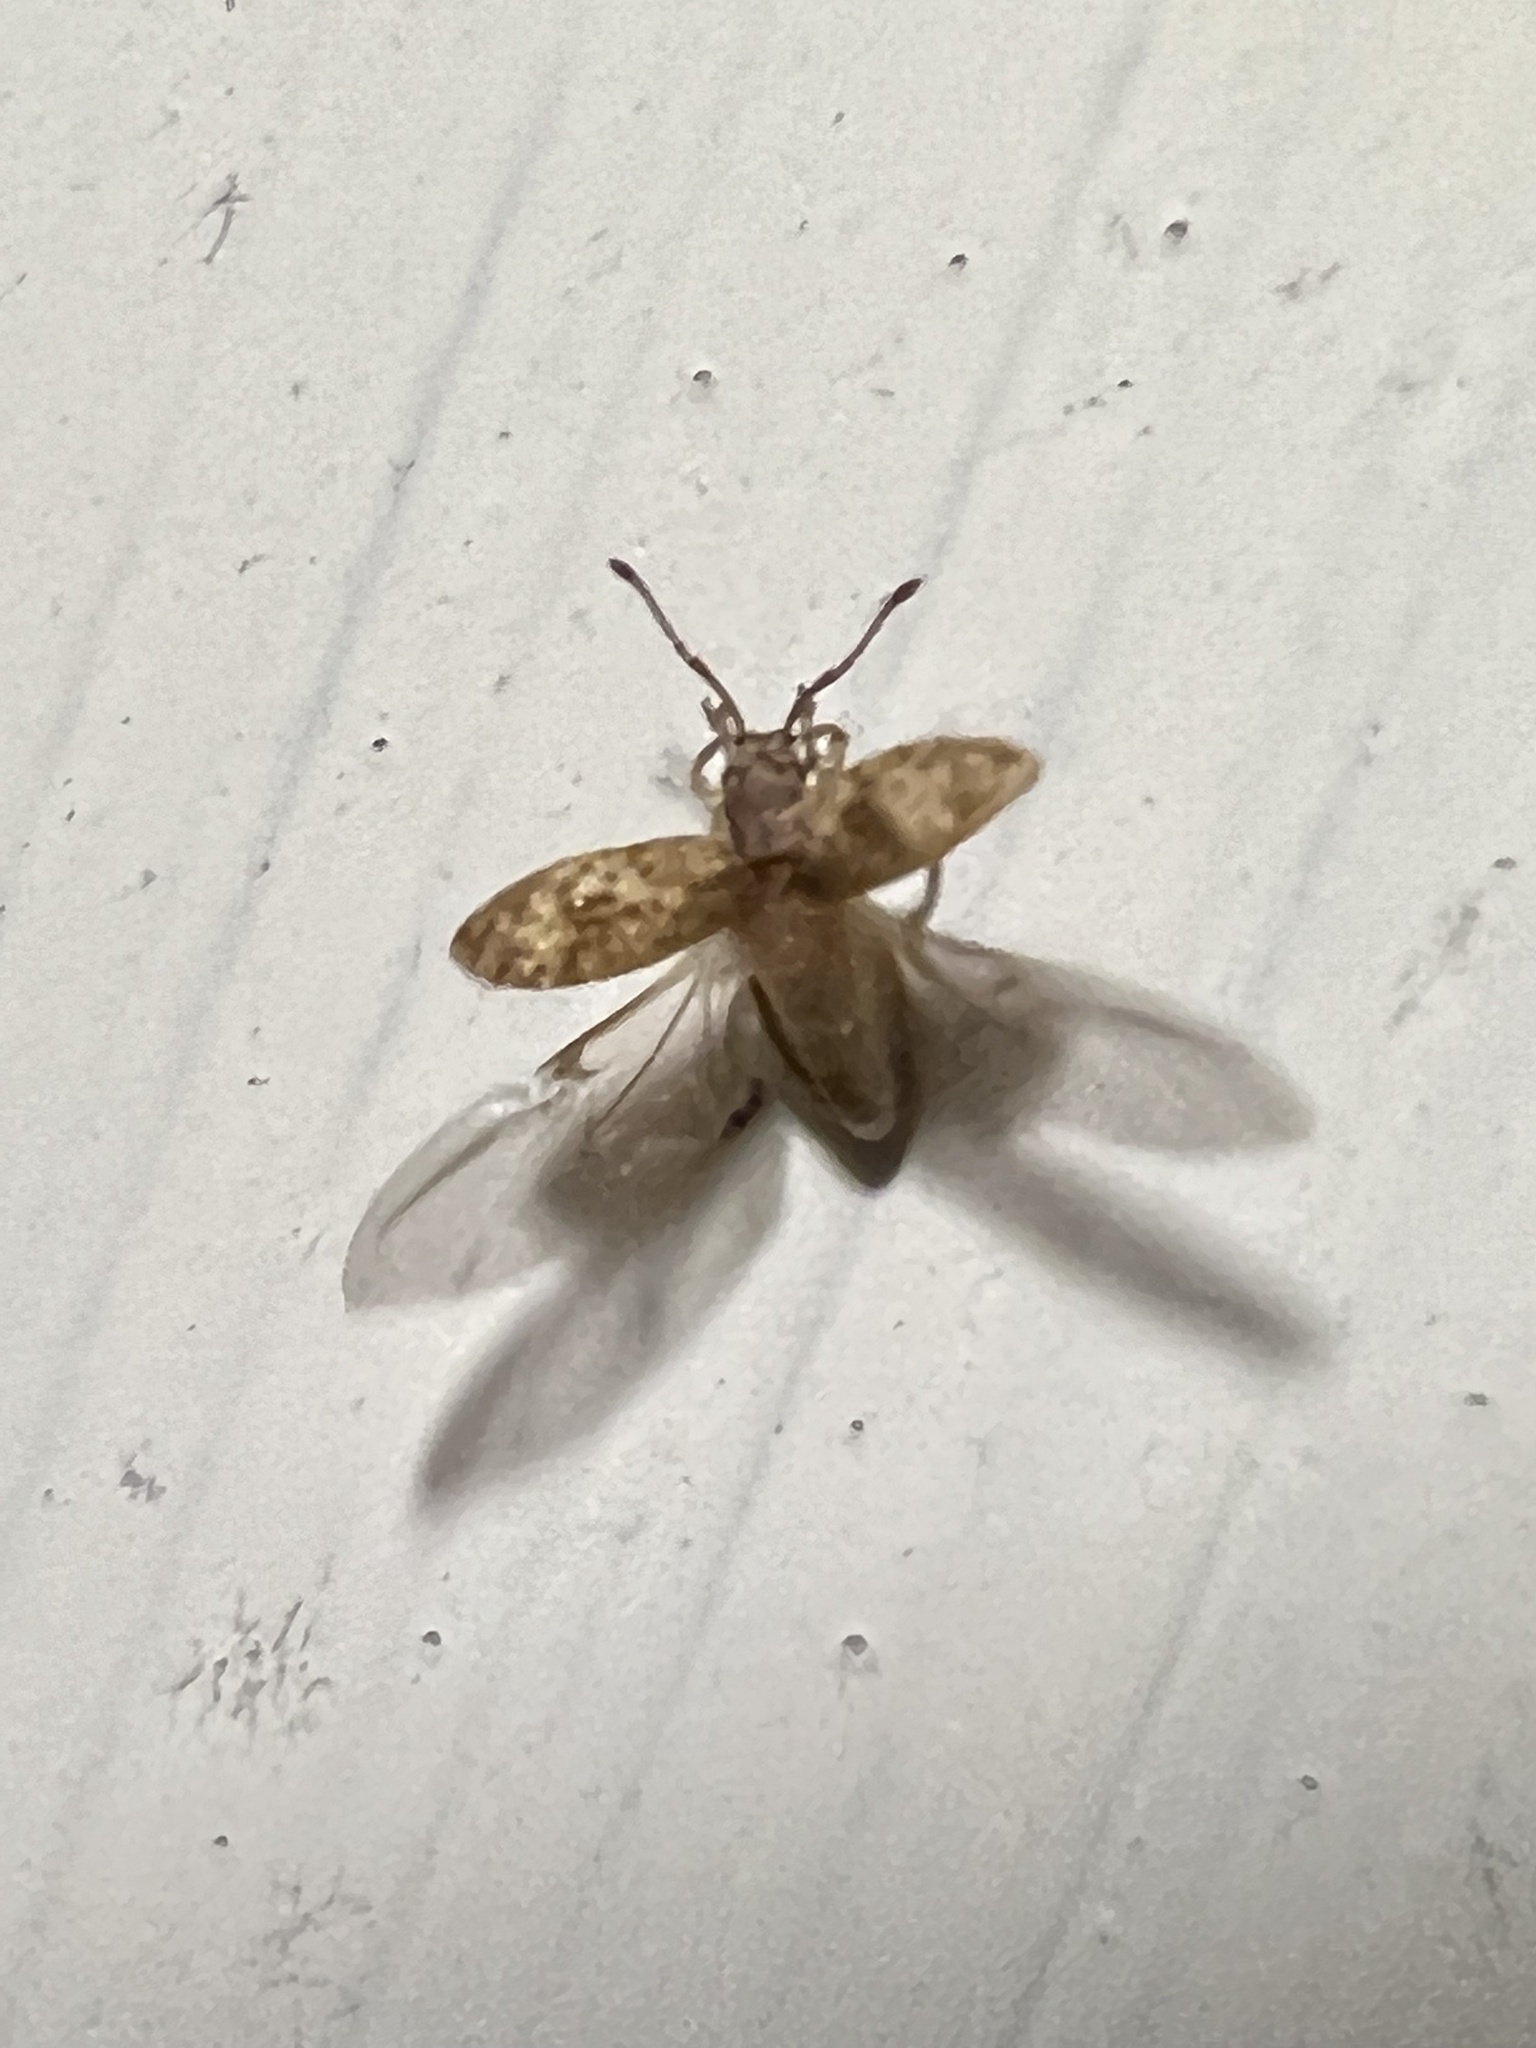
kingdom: Animalia
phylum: Arthropoda
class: Insecta
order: Coleoptera
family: Curculionidae
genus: Pseudoedophrys
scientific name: Pseudoedophrys hilleri
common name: Weevil
